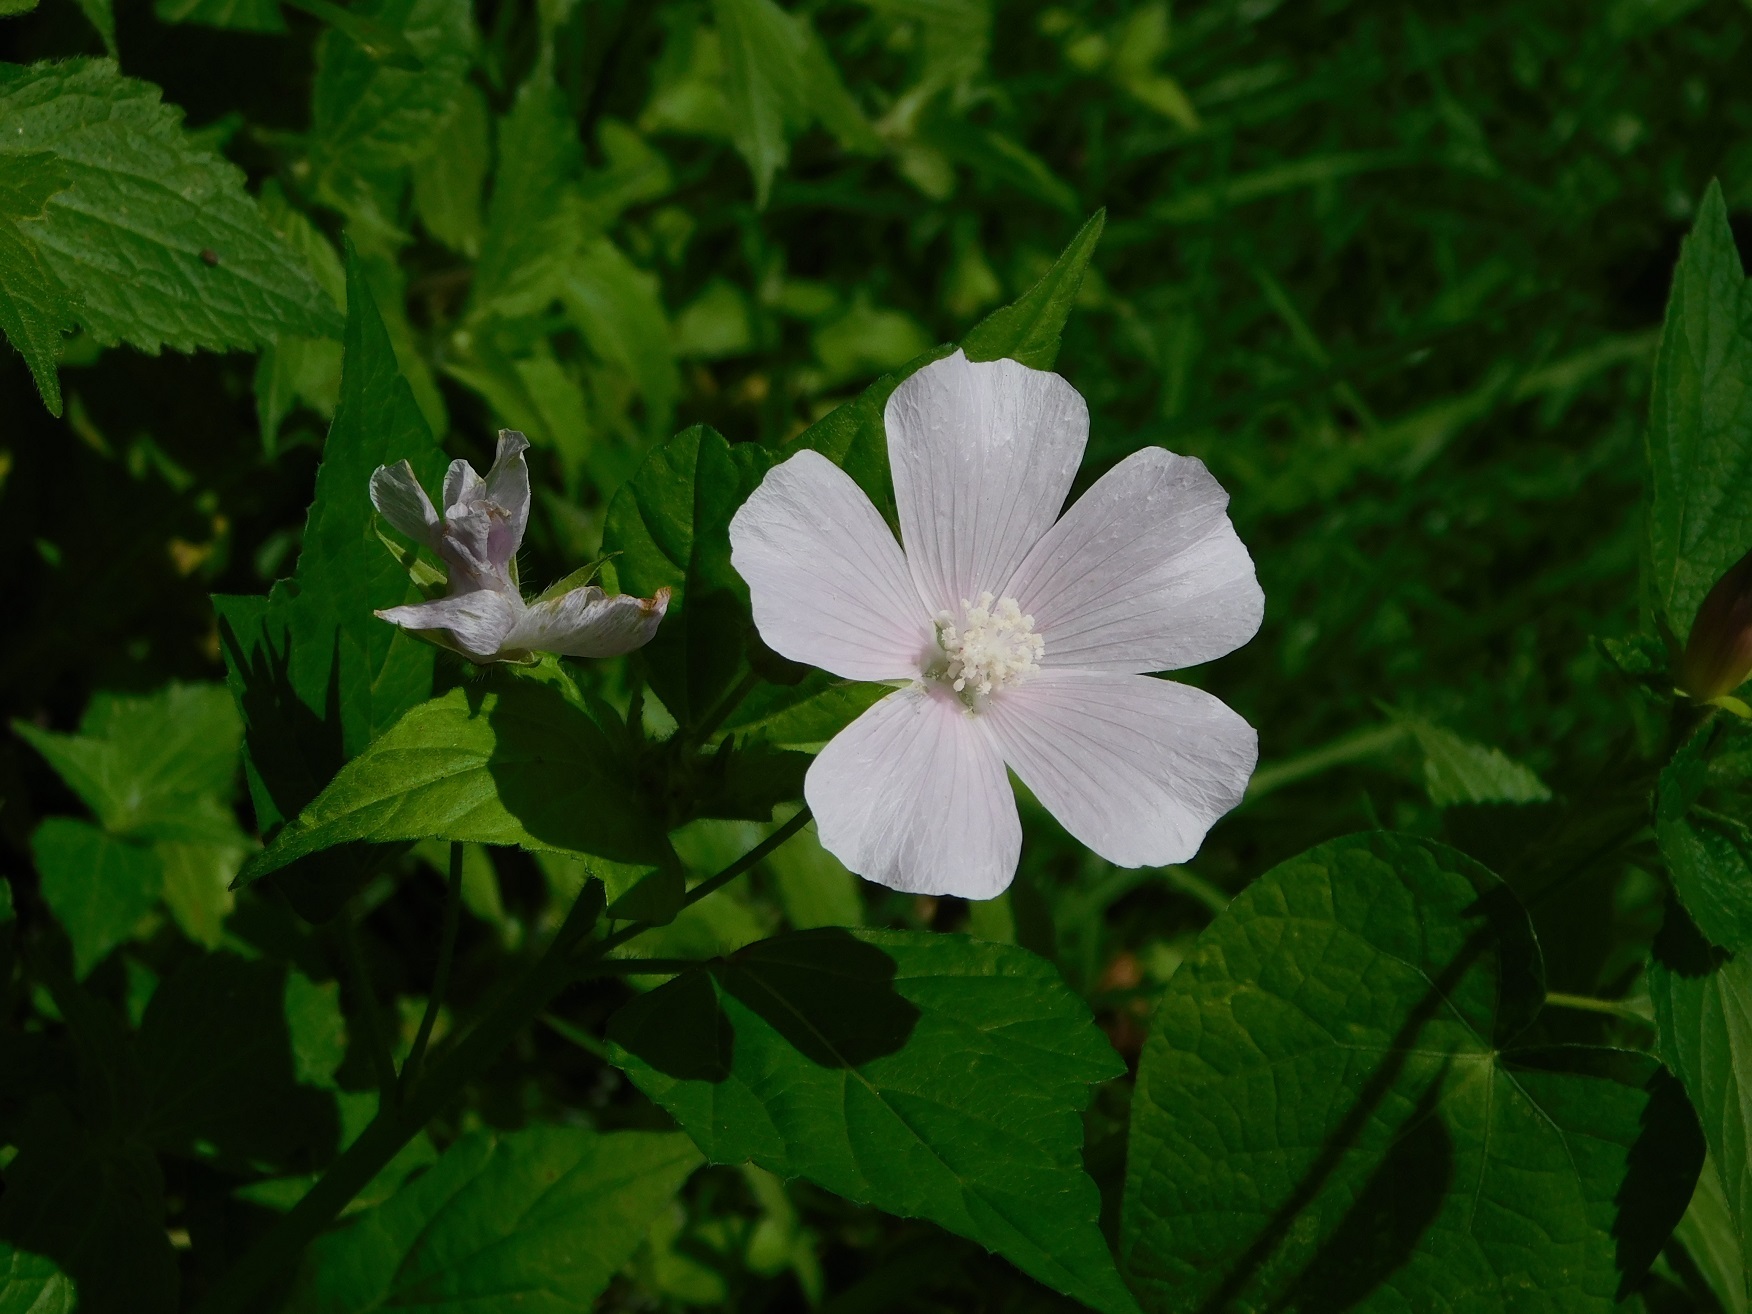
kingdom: Plantae
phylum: Tracheophyta
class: Magnoliopsida
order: Malvales
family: Malvaceae
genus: Anoda
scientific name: Anoda albiflora
